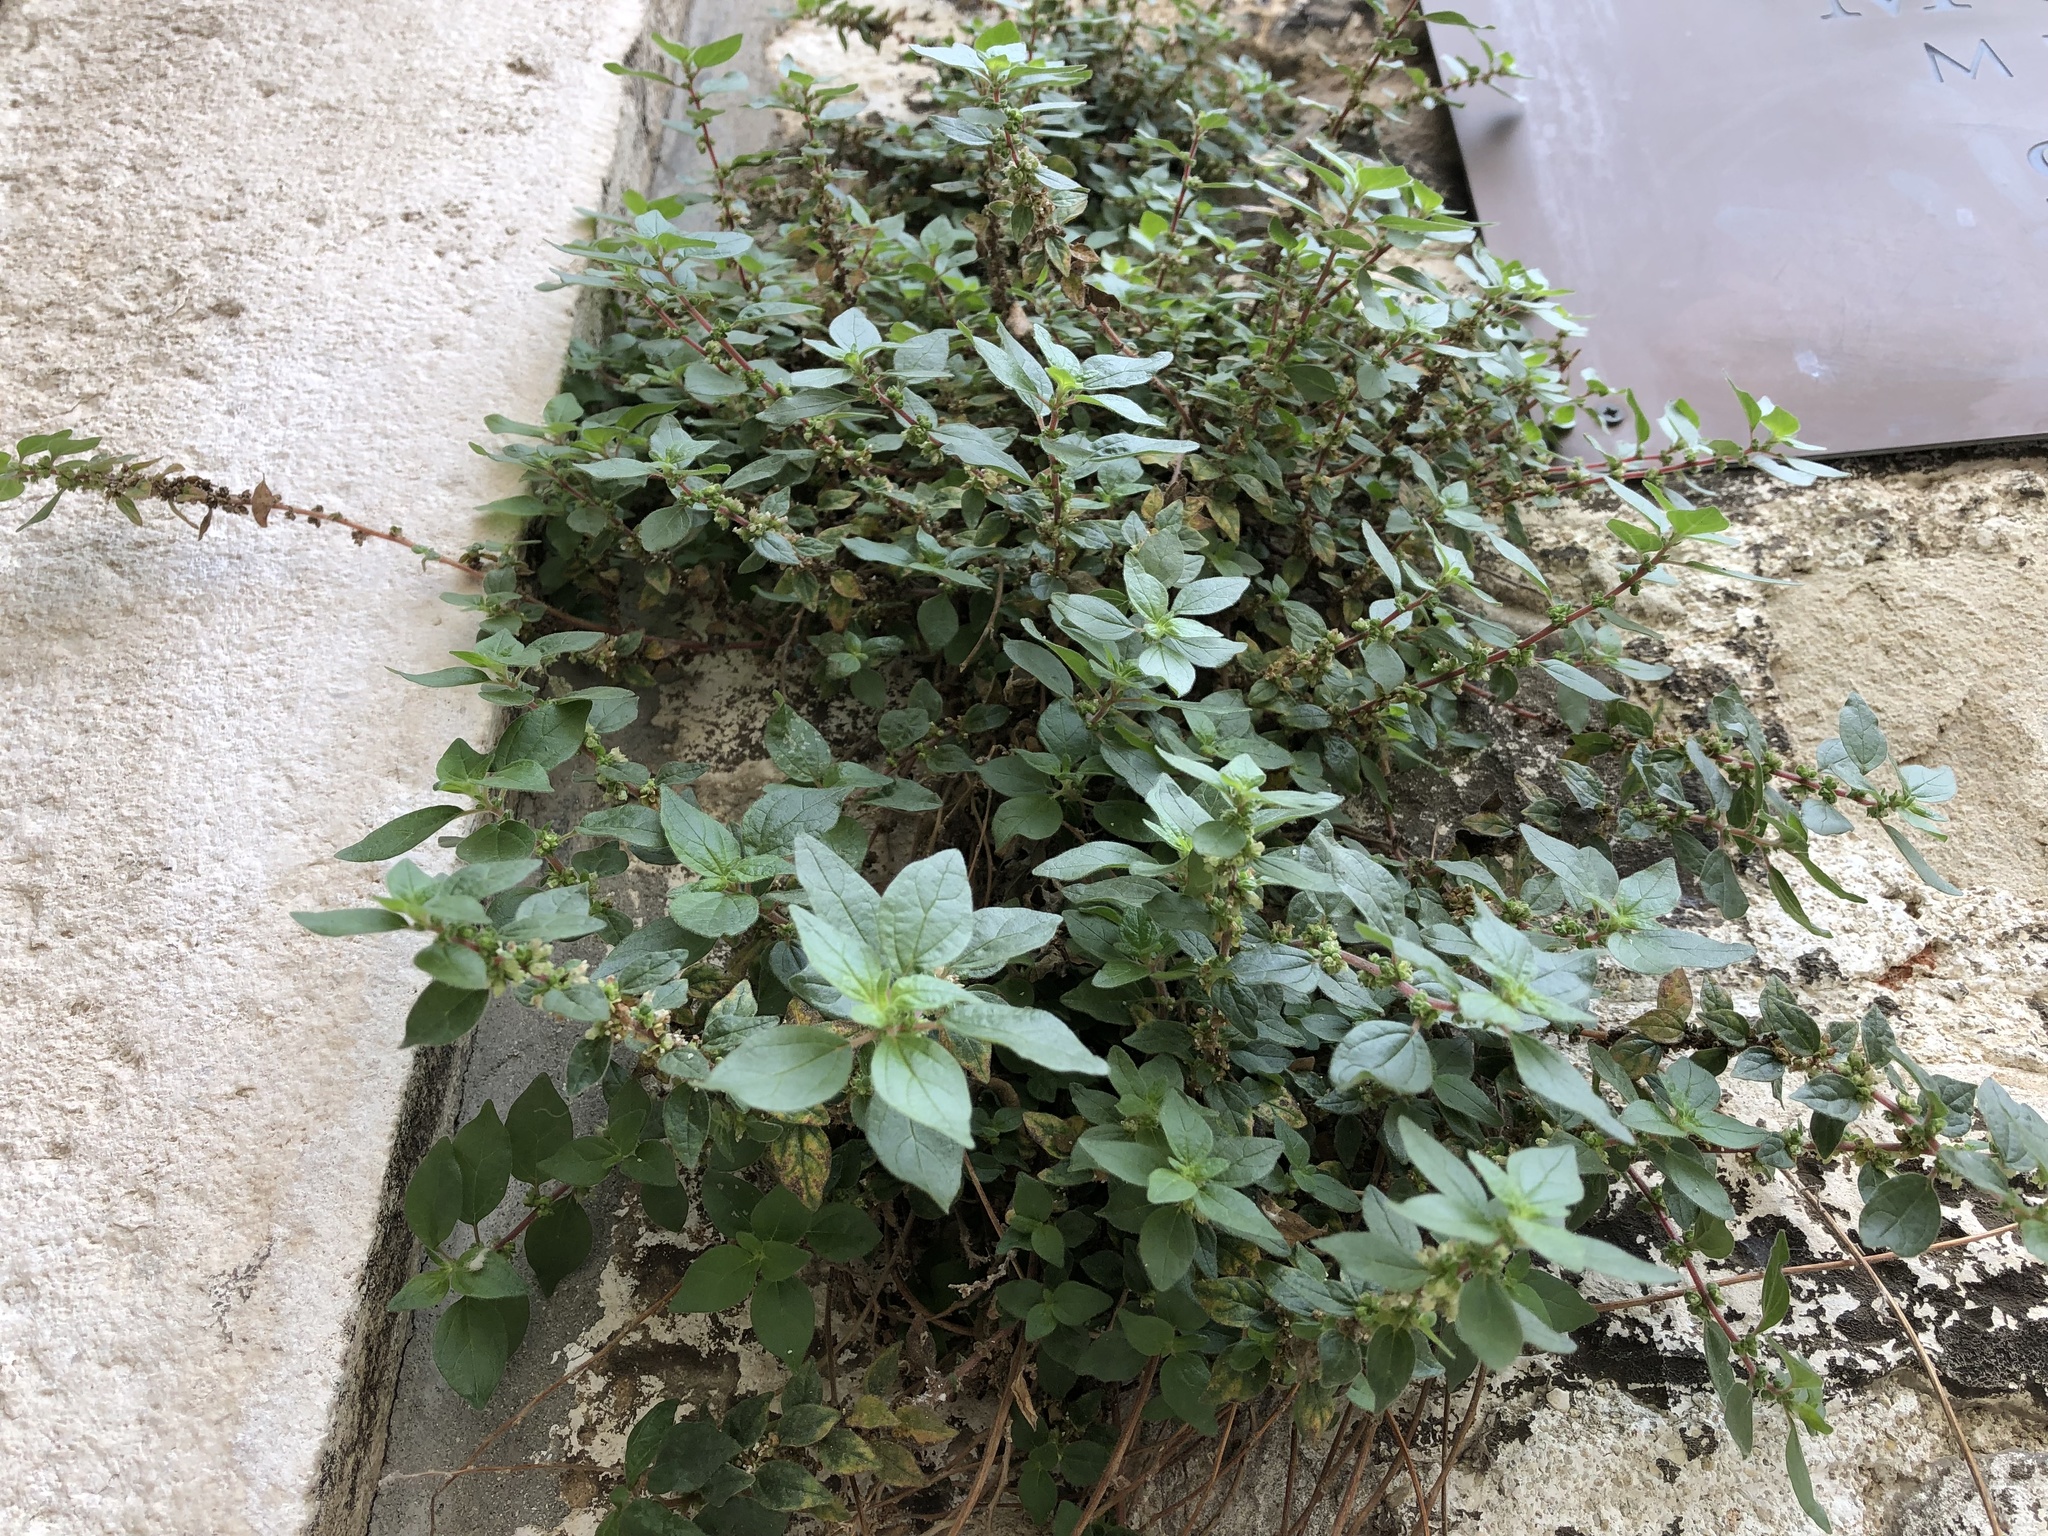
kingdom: Plantae
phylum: Tracheophyta
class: Magnoliopsida
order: Rosales
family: Urticaceae
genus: Parietaria
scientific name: Parietaria judaica
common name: Pellitory-of-the-wall
